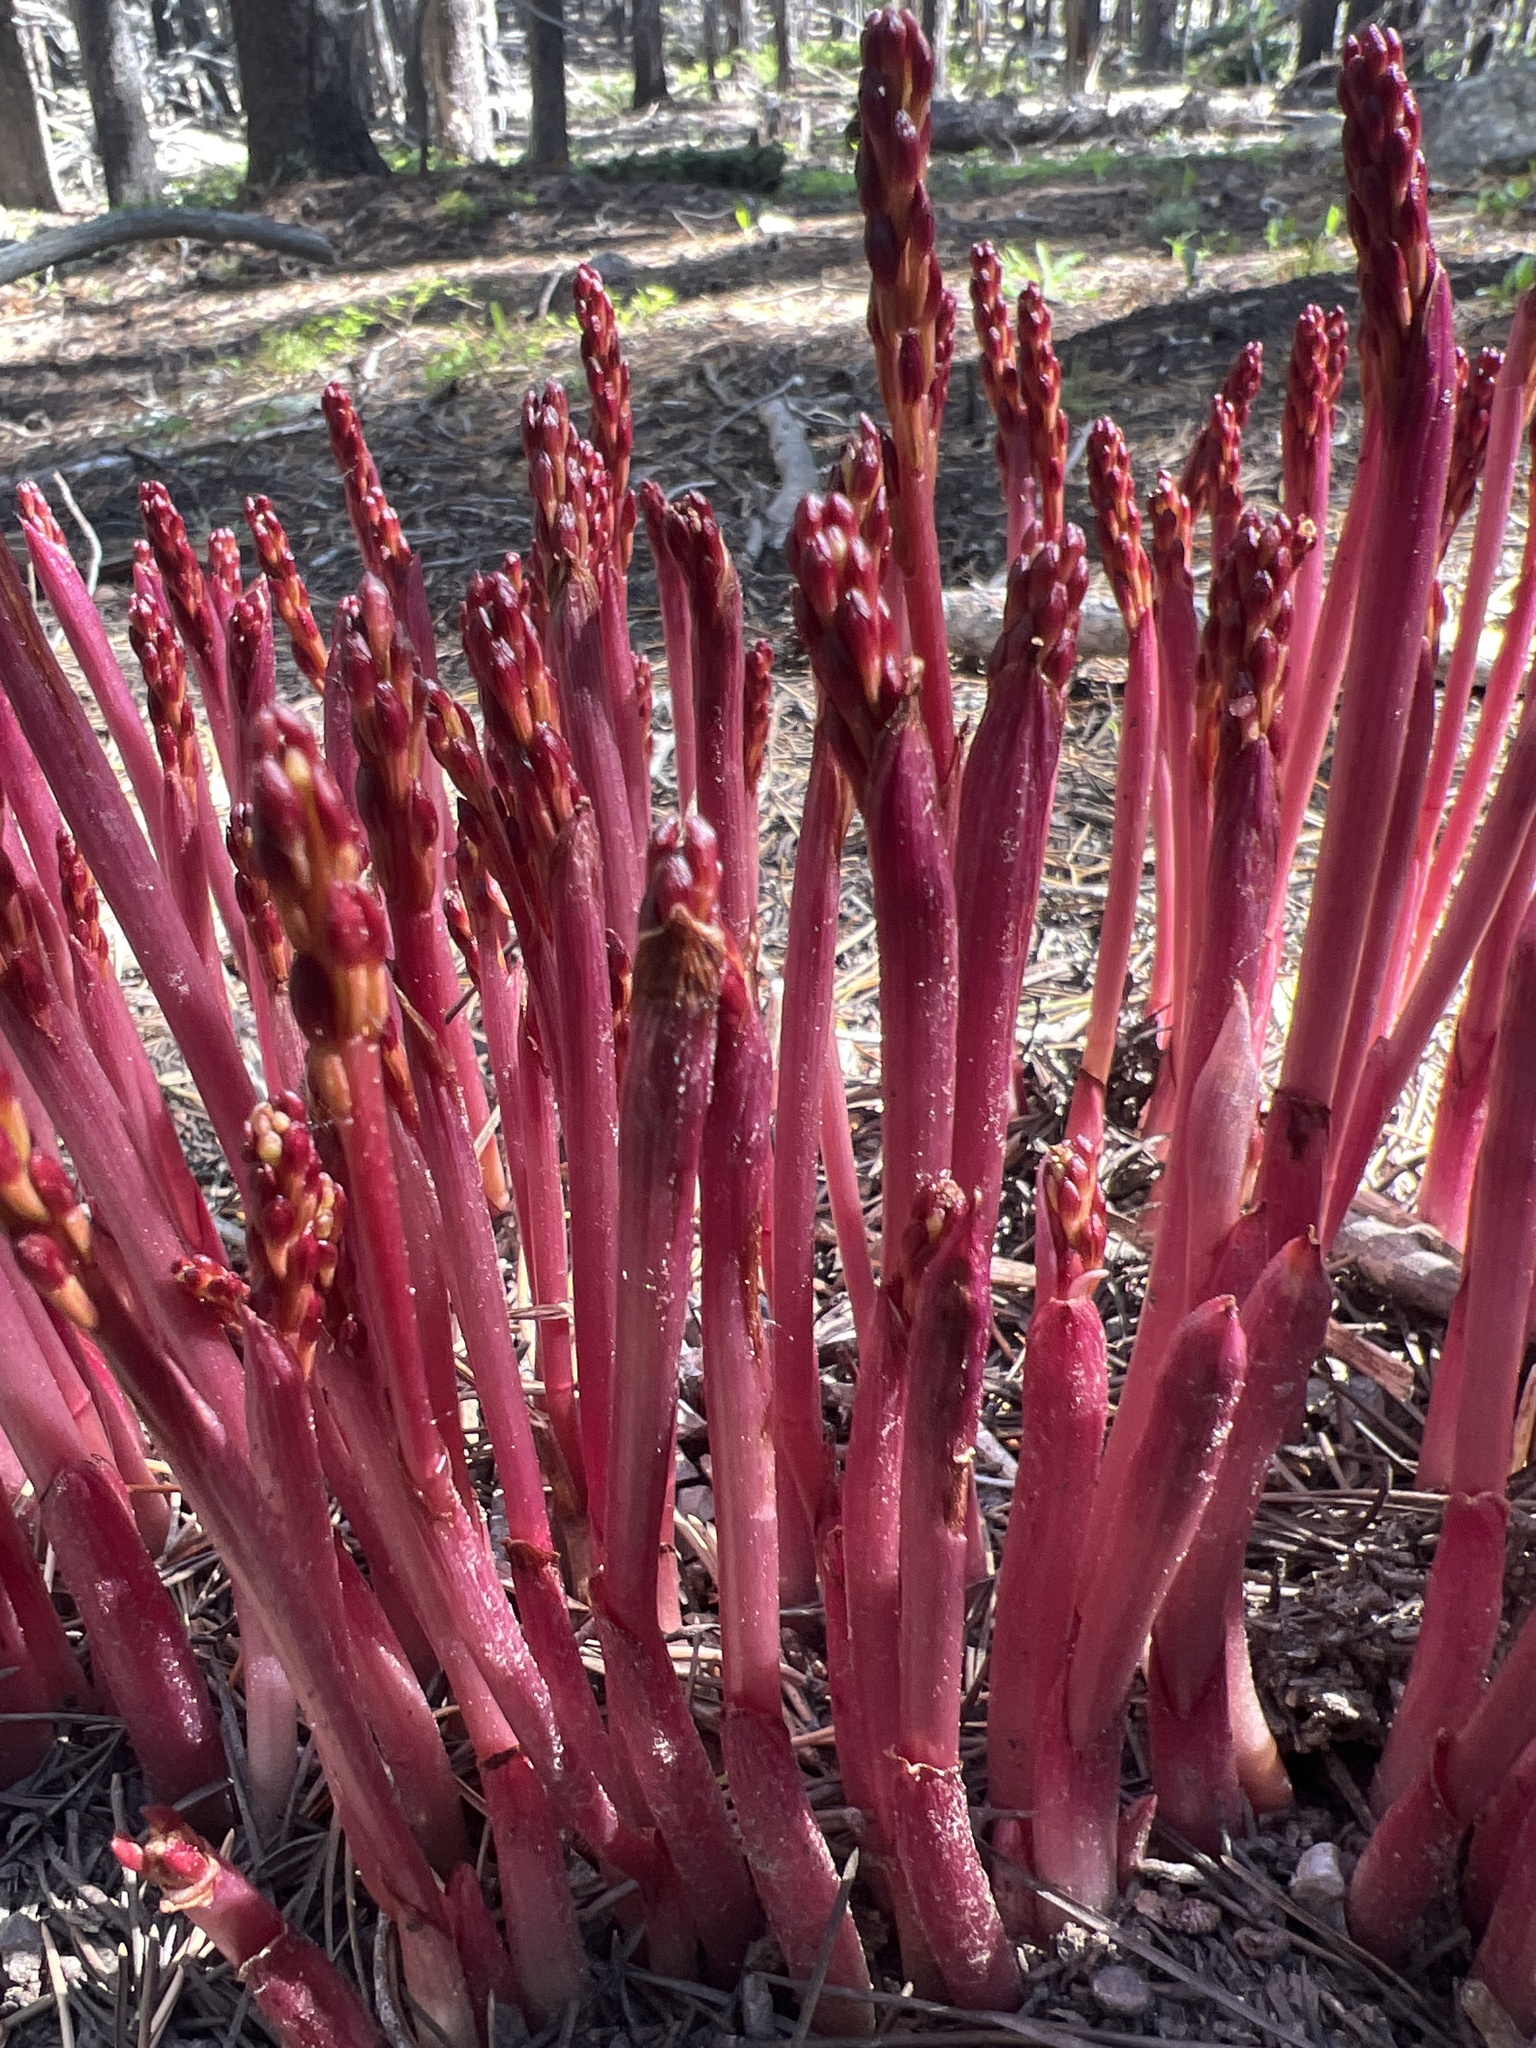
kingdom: Plantae
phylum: Tracheophyta
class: Magnoliopsida
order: Ericales
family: Ericaceae
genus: Pterospora
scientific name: Pterospora andromedea
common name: Giant bird's-nest
